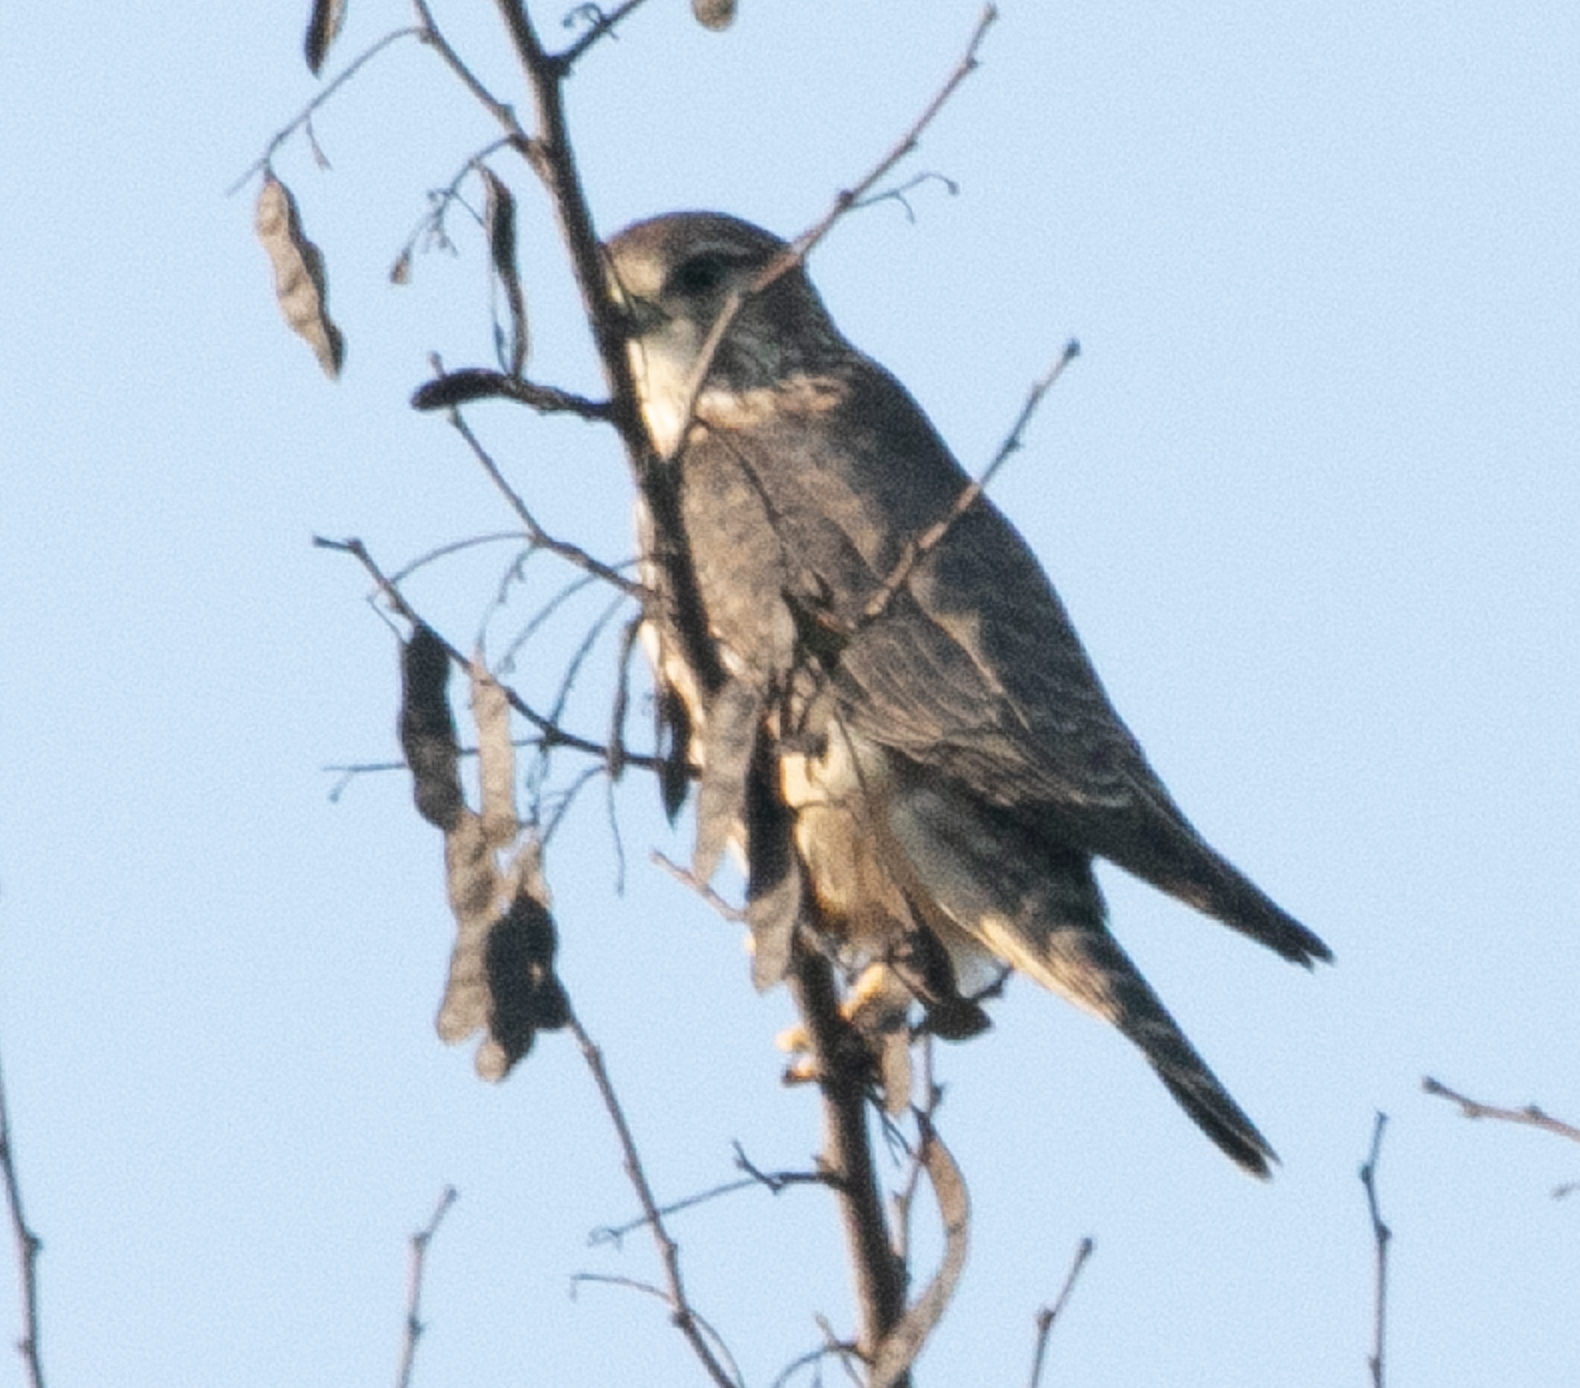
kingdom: Animalia
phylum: Chordata
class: Aves
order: Falconiformes
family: Falconidae
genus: Falco
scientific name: Falco columbarius
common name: Merlin
